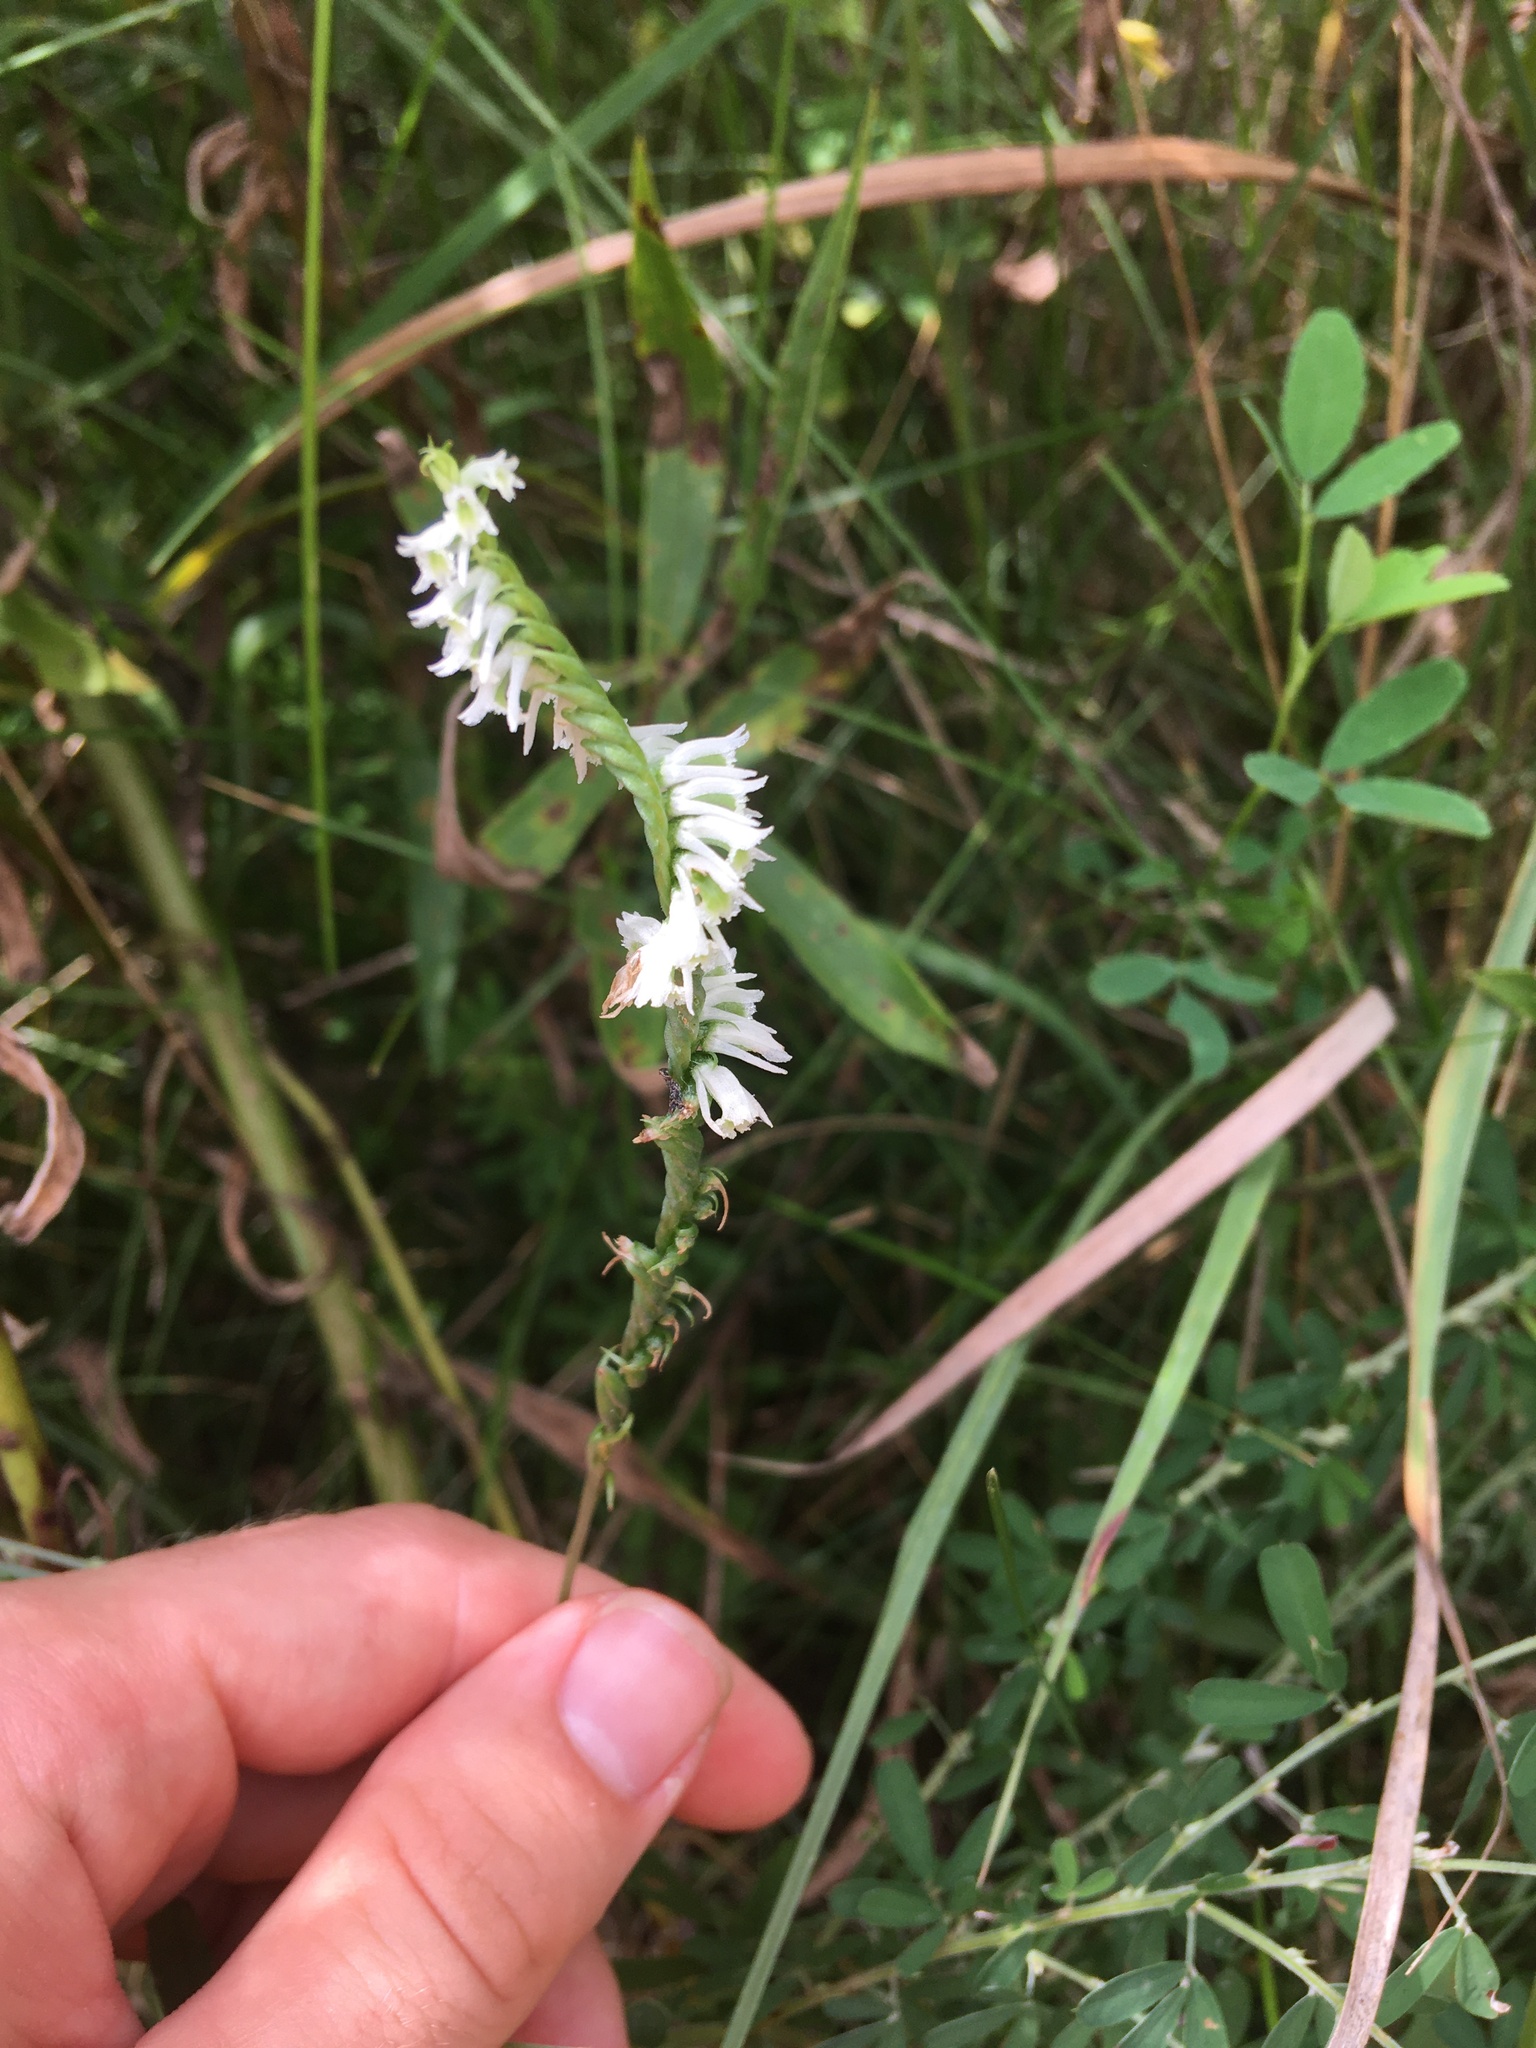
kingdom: Plantae
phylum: Tracheophyta
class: Liliopsida
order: Asparagales
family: Orchidaceae
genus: Spiranthes
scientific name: Spiranthes lacera
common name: Northern slender ladies'-tresses
